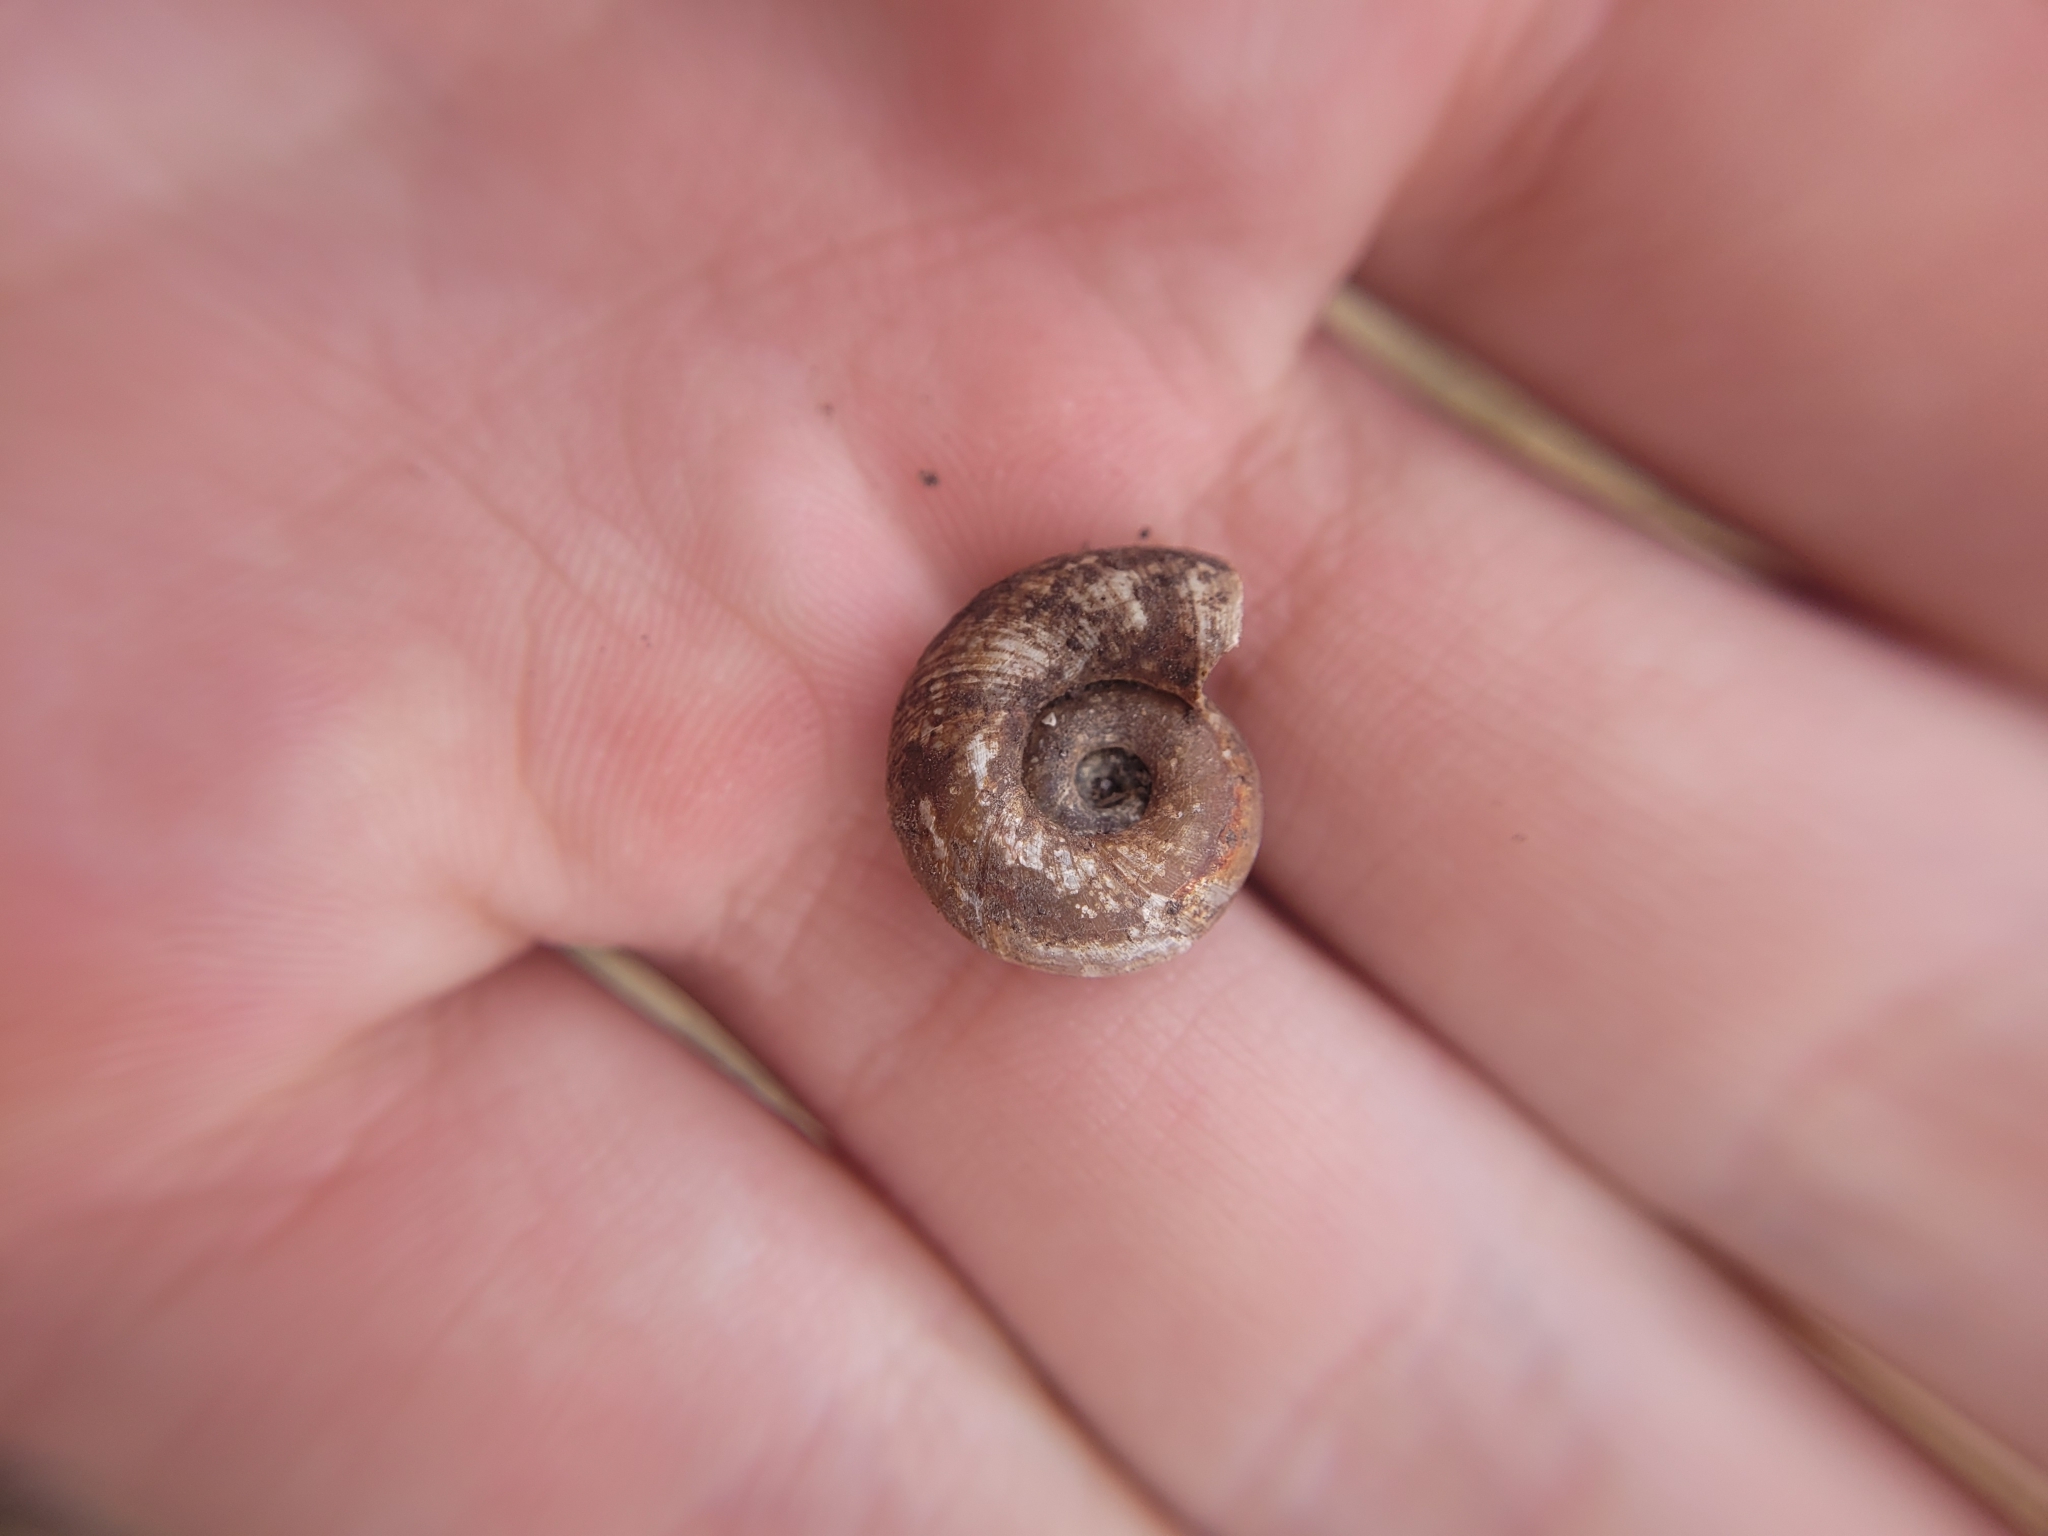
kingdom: Animalia
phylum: Mollusca
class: Gastropoda
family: Planorbidae
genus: Planorbarius
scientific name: Planorbarius corneus
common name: Great ramshorn
